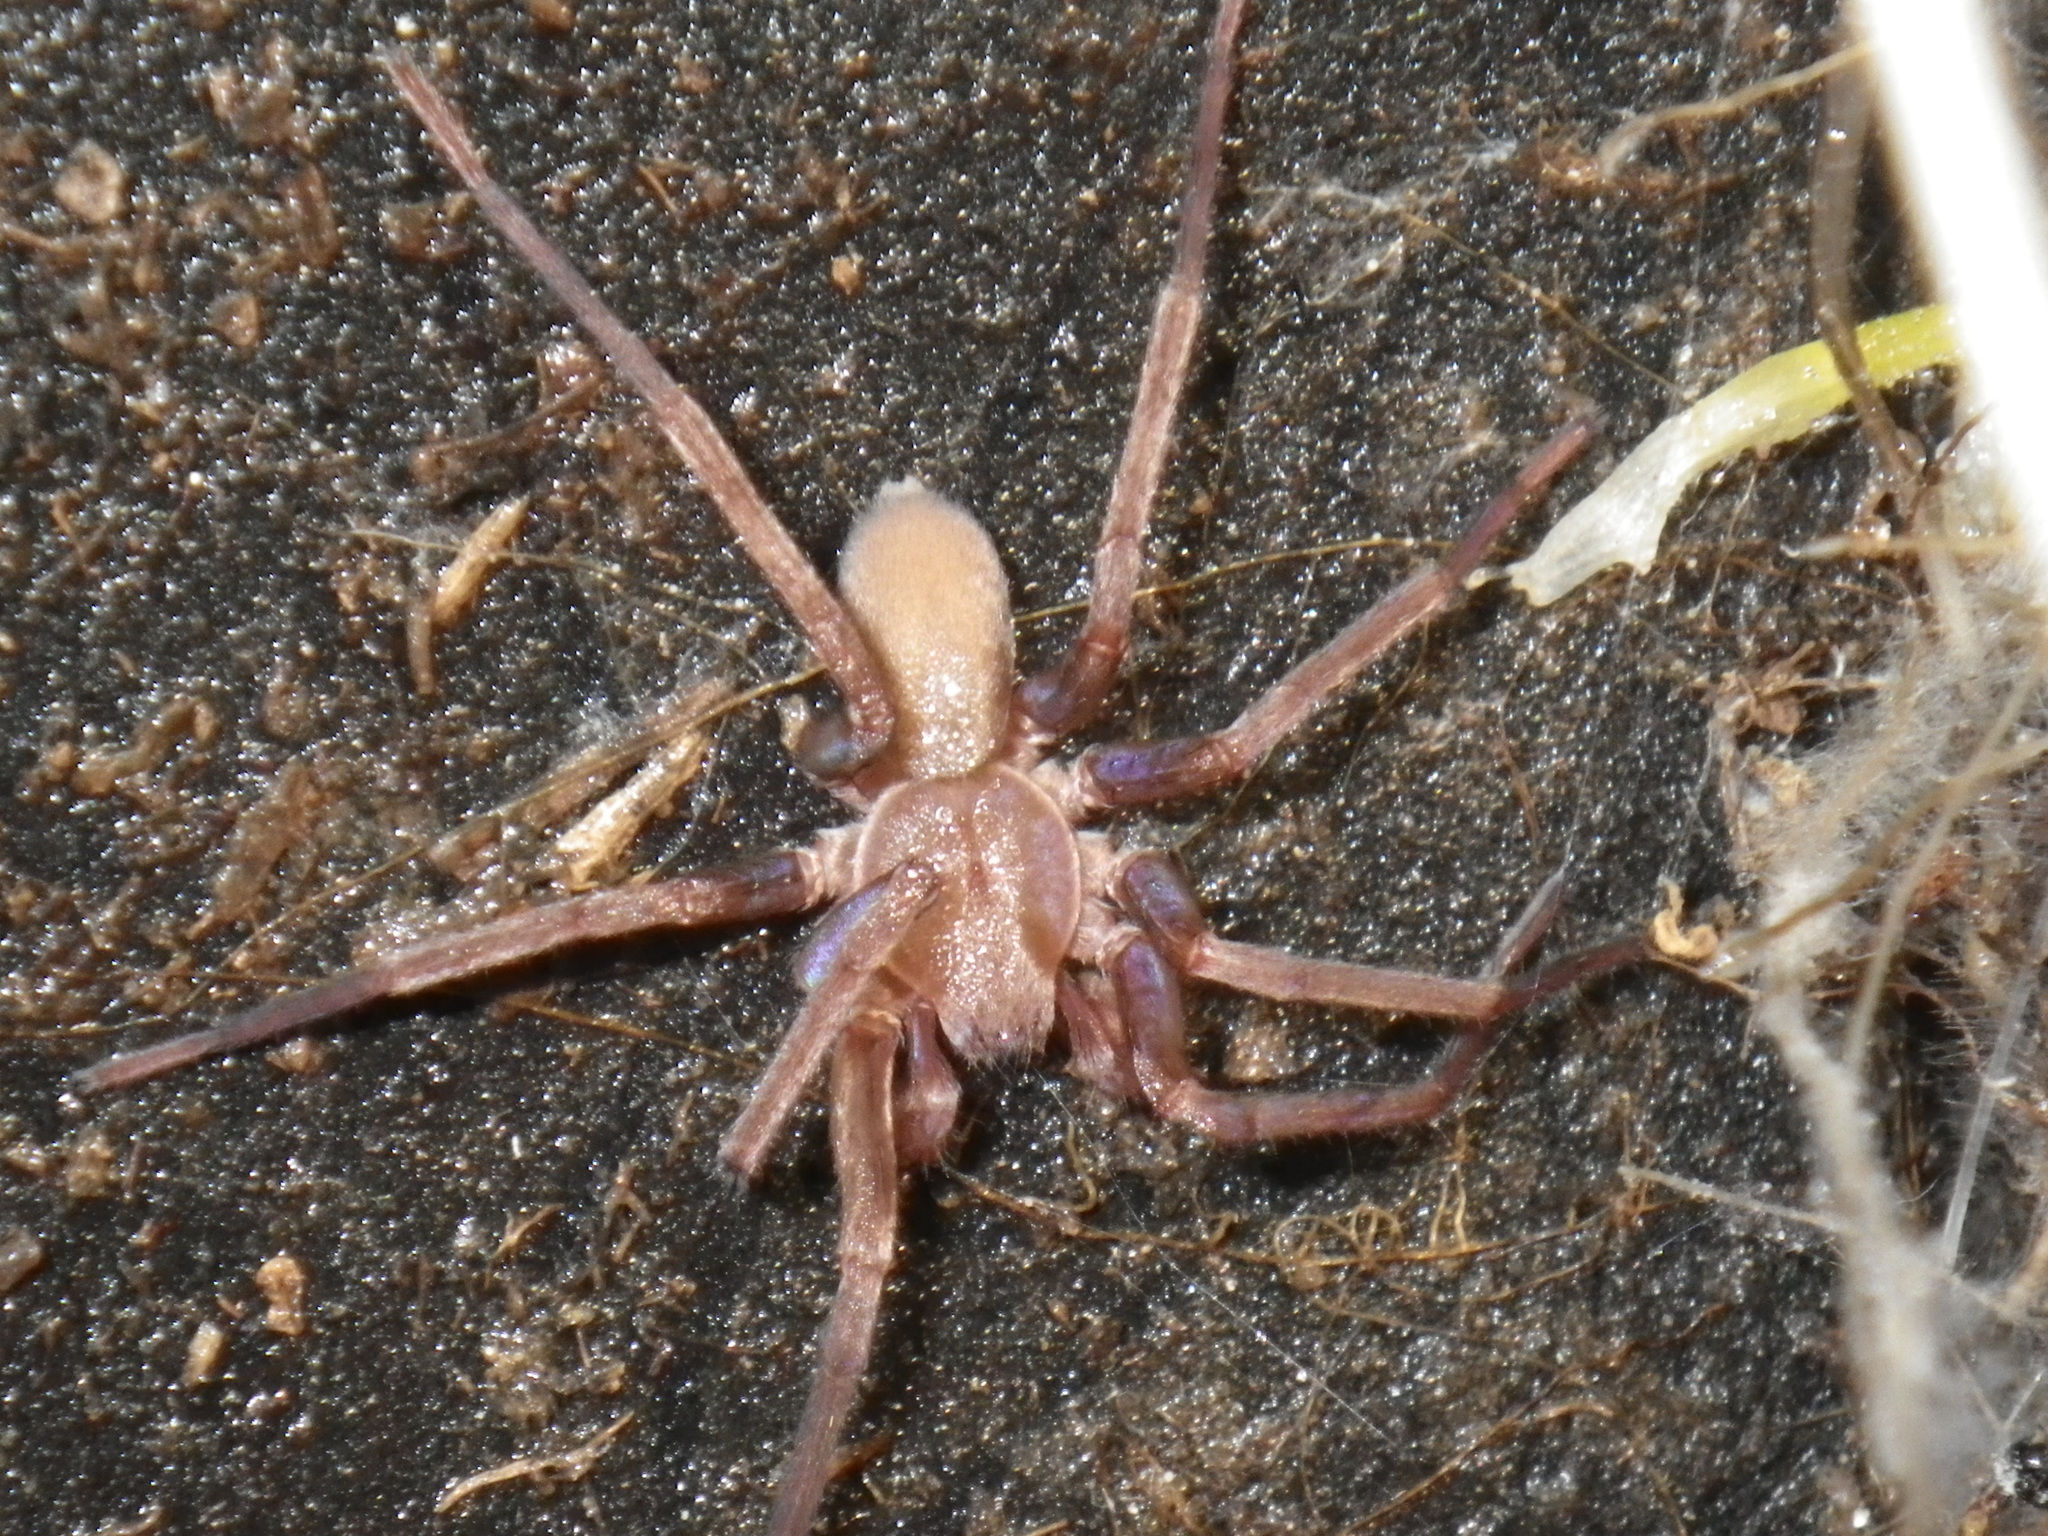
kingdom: Animalia
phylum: Arthropoda
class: Arachnida
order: Araneae
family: Zoropsidae
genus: Titiotus
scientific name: Titiotus
